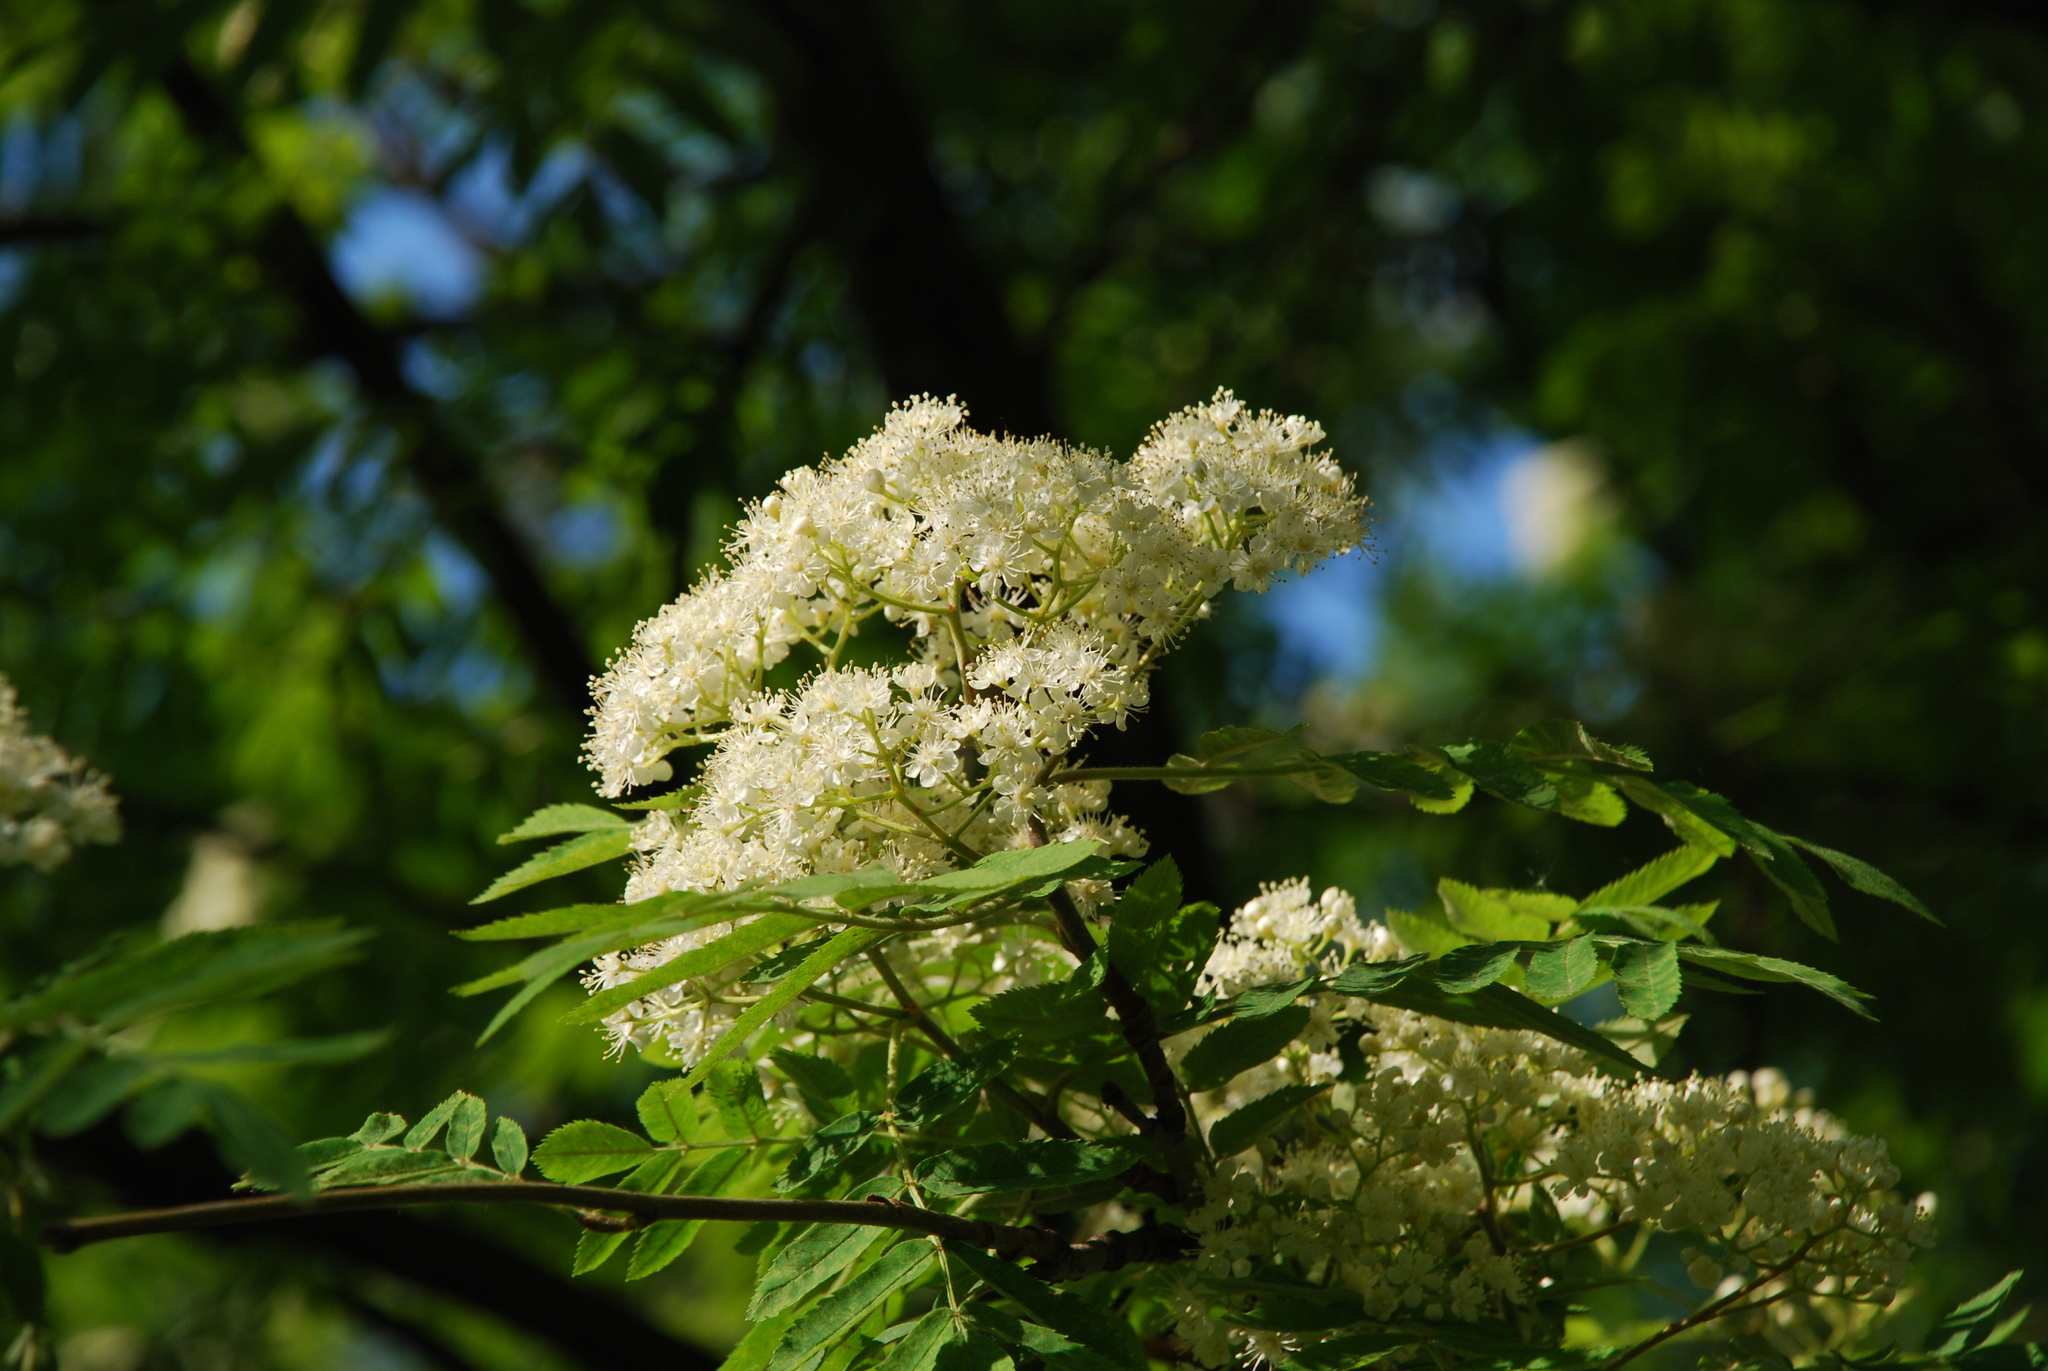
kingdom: Plantae
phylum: Tracheophyta
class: Magnoliopsida
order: Rosales
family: Rosaceae
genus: Sorbus
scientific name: Sorbus aucuparia
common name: Rowan
